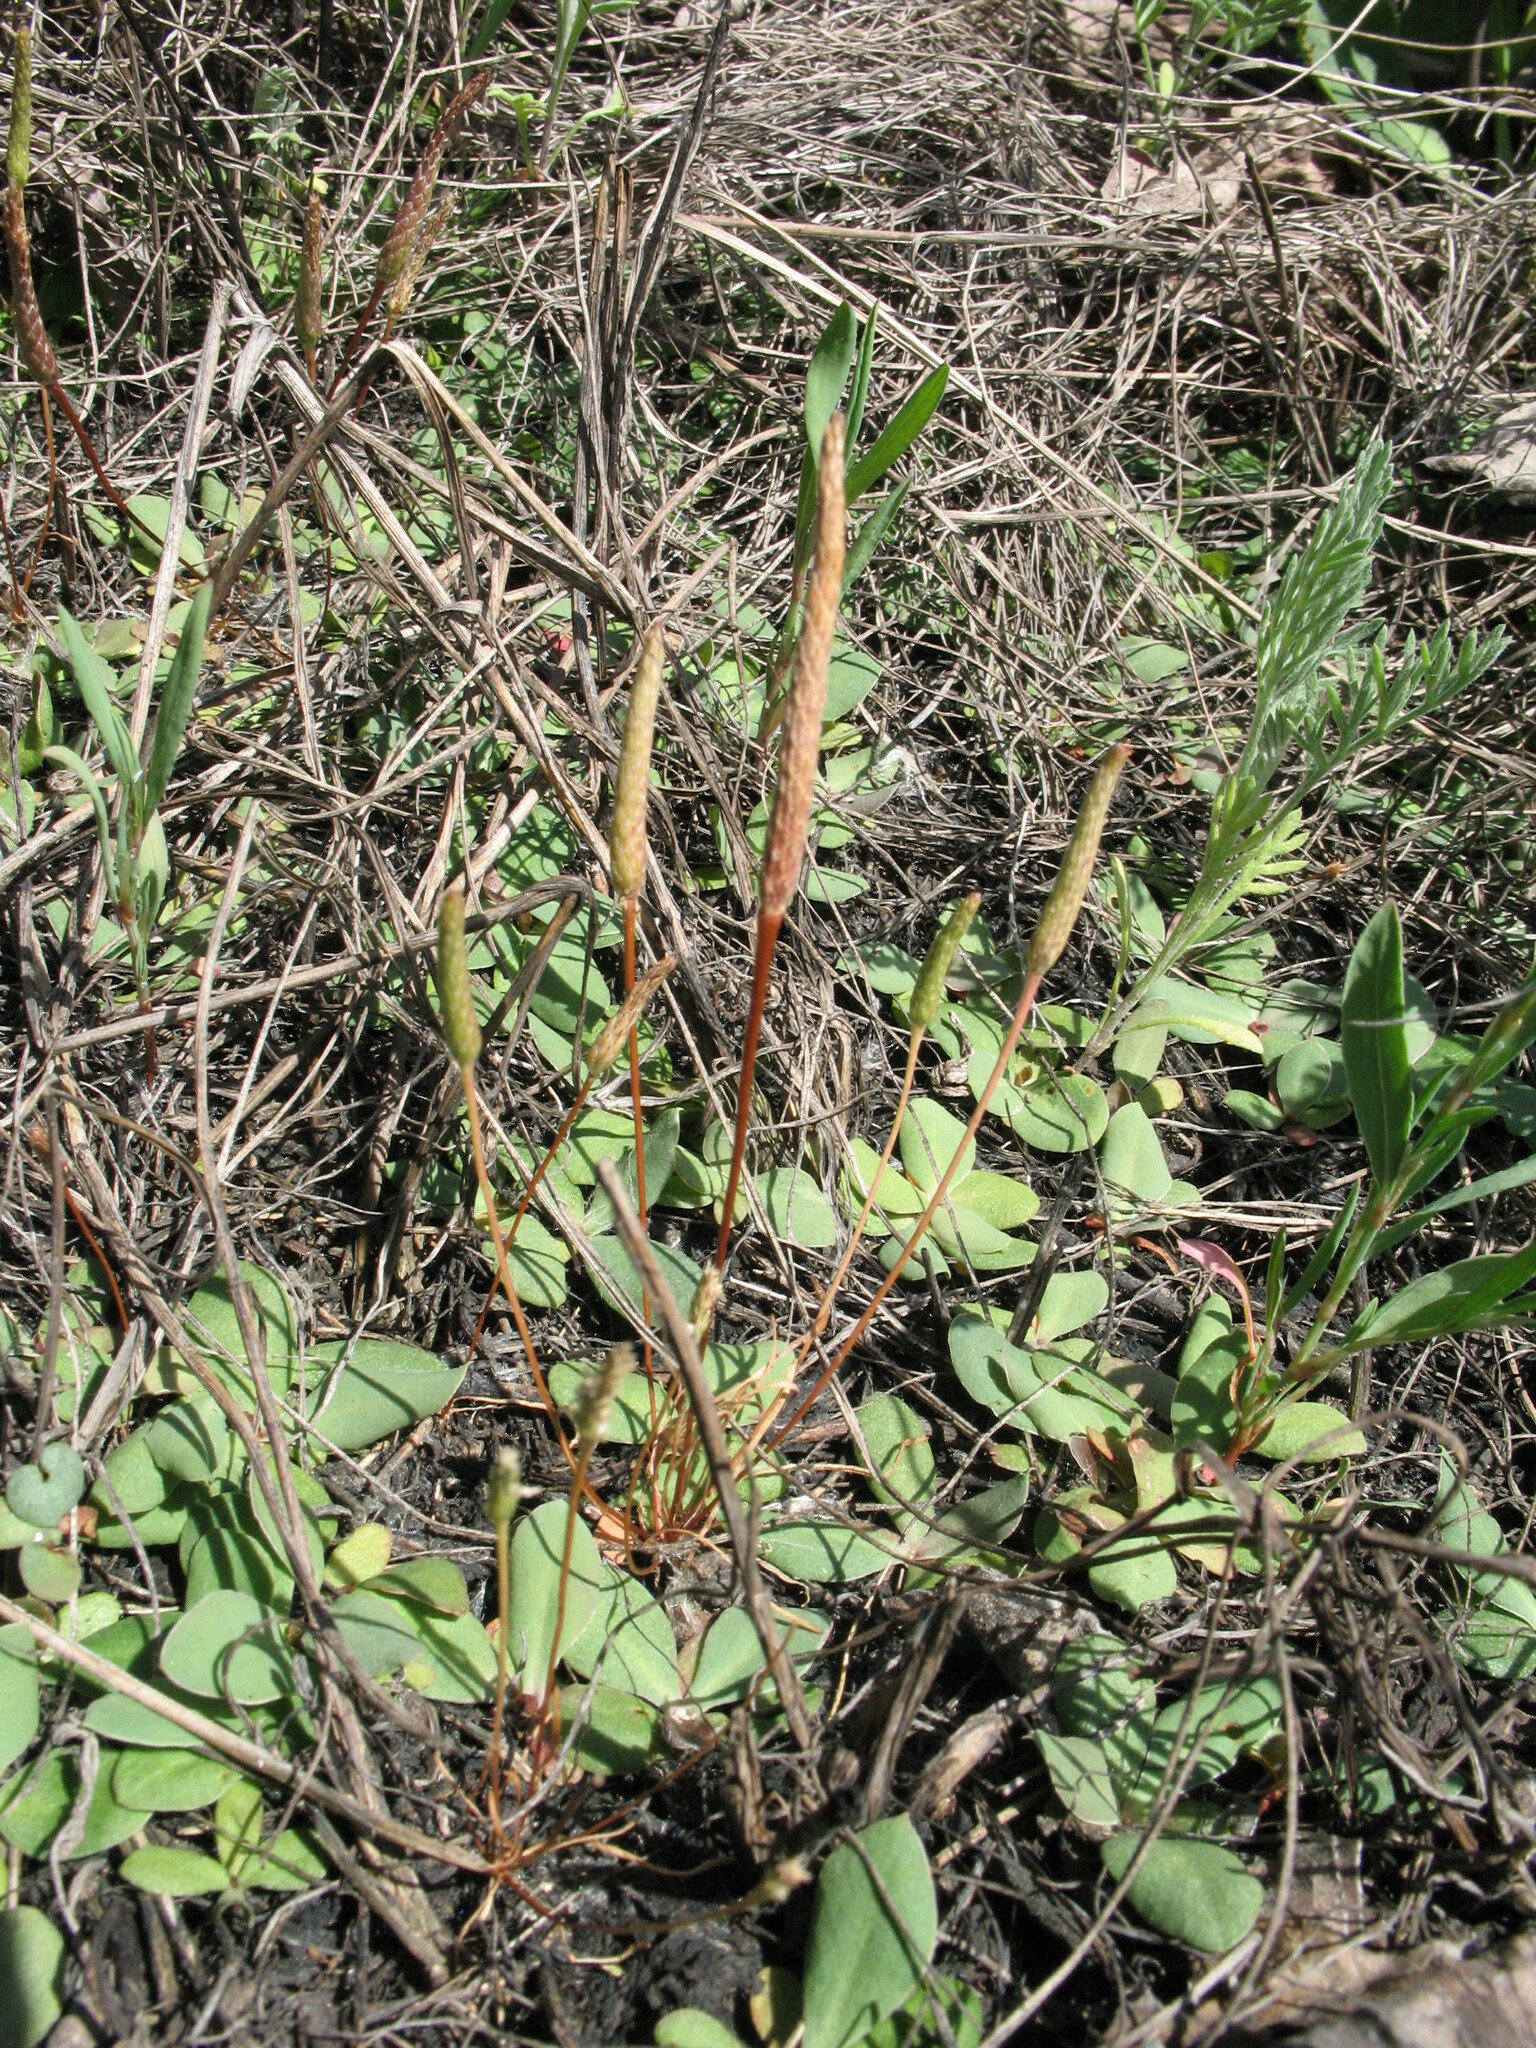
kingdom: Plantae
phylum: Tracheophyta
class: Magnoliopsida
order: Ranunculales
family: Ranunculaceae
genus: Myosurus
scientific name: Myosurus minimus
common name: Mousetail
